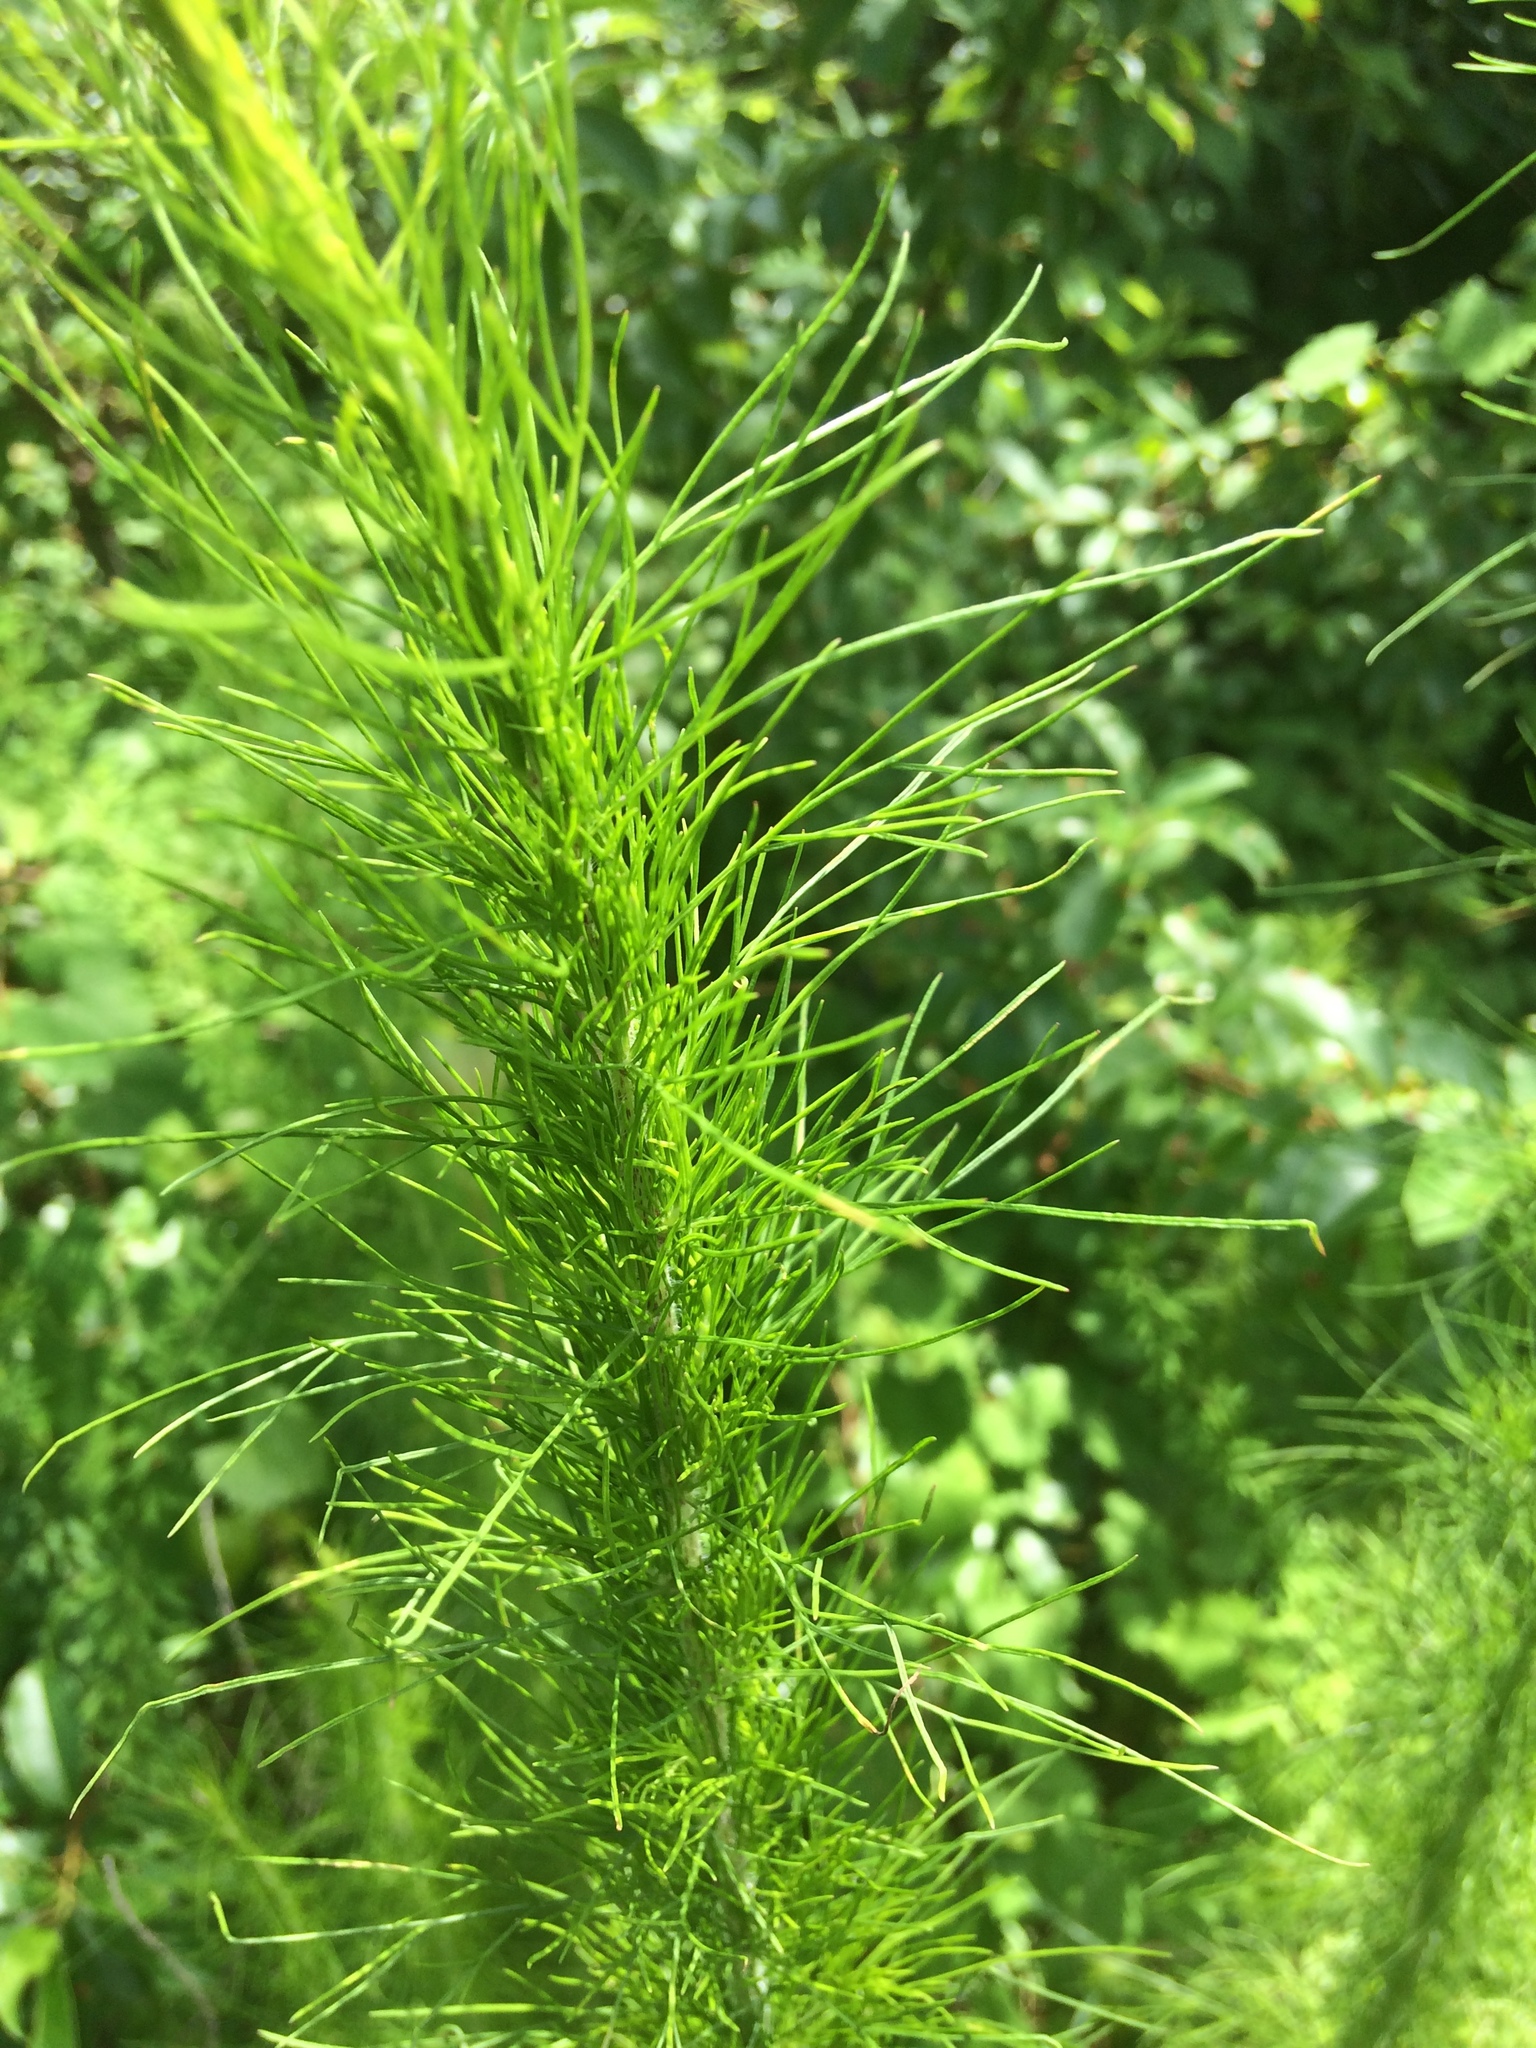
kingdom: Plantae
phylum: Tracheophyta
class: Magnoliopsida
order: Asterales
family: Asteraceae
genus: Eupatorium
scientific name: Eupatorium capillifolium
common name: Dog-fennel
